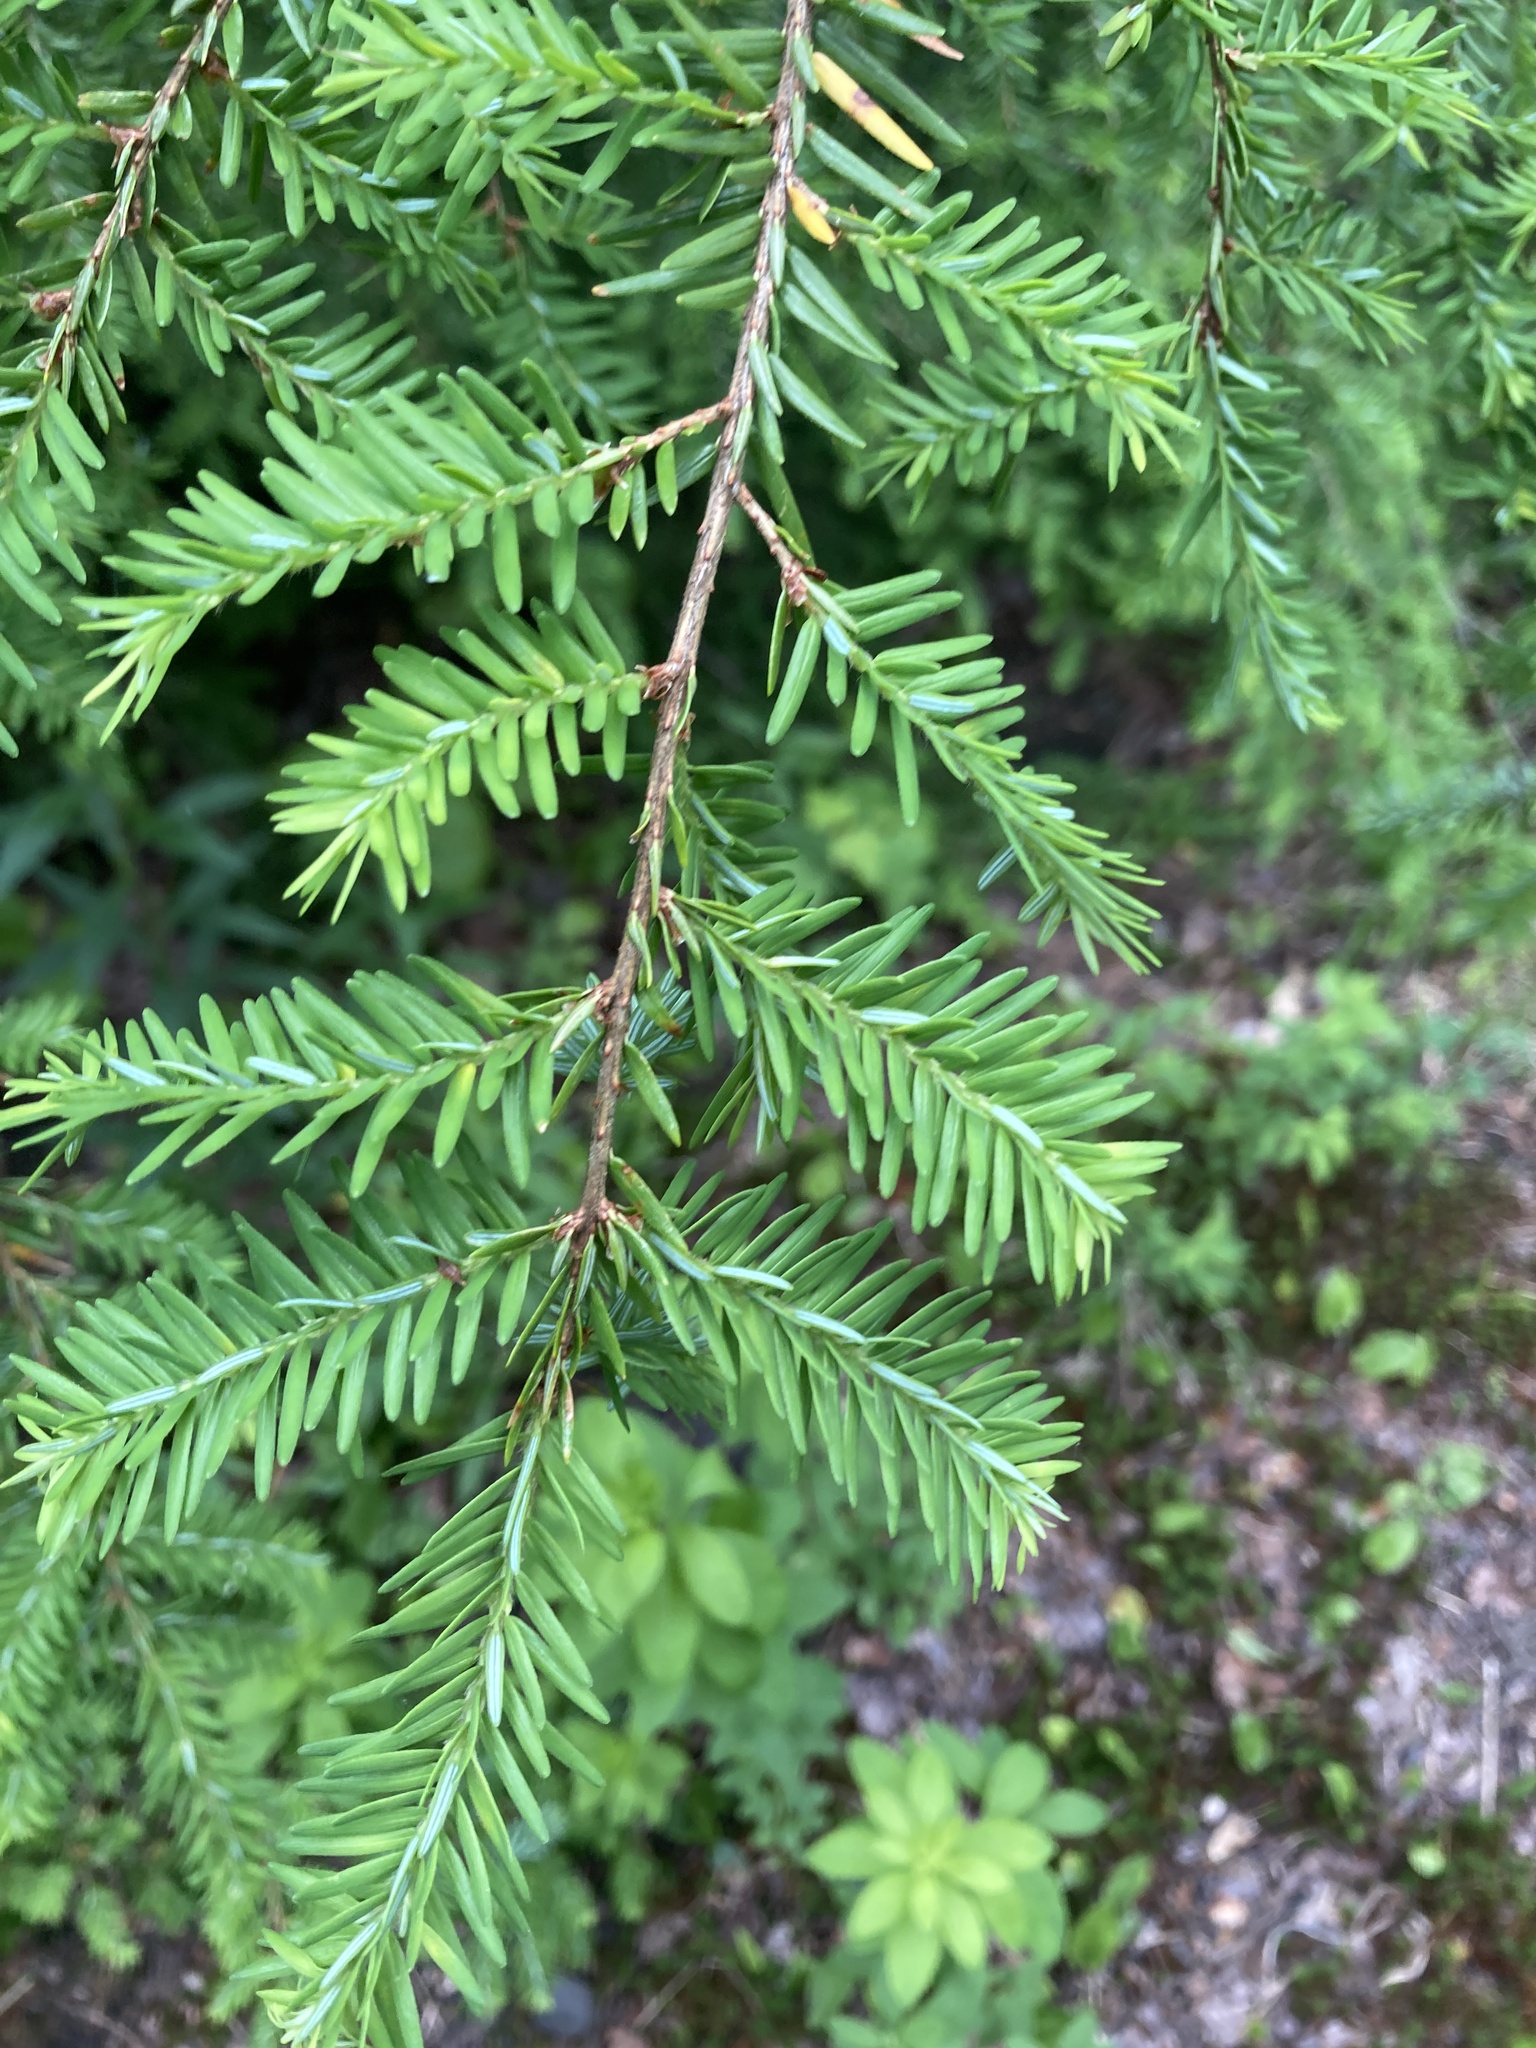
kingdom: Plantae
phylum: Tracheophyta
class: Pinopsida
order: Pinales
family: Pinaceae
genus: Tsuga
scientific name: Tsuga canadensis
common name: Eastern hemlock
